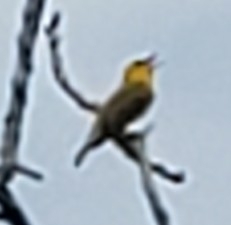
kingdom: Animalia
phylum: Chordata
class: Aves
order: Passeriformes
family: Parulidae
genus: Setophaga
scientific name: Setophaga petechia
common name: Yellow warbler
